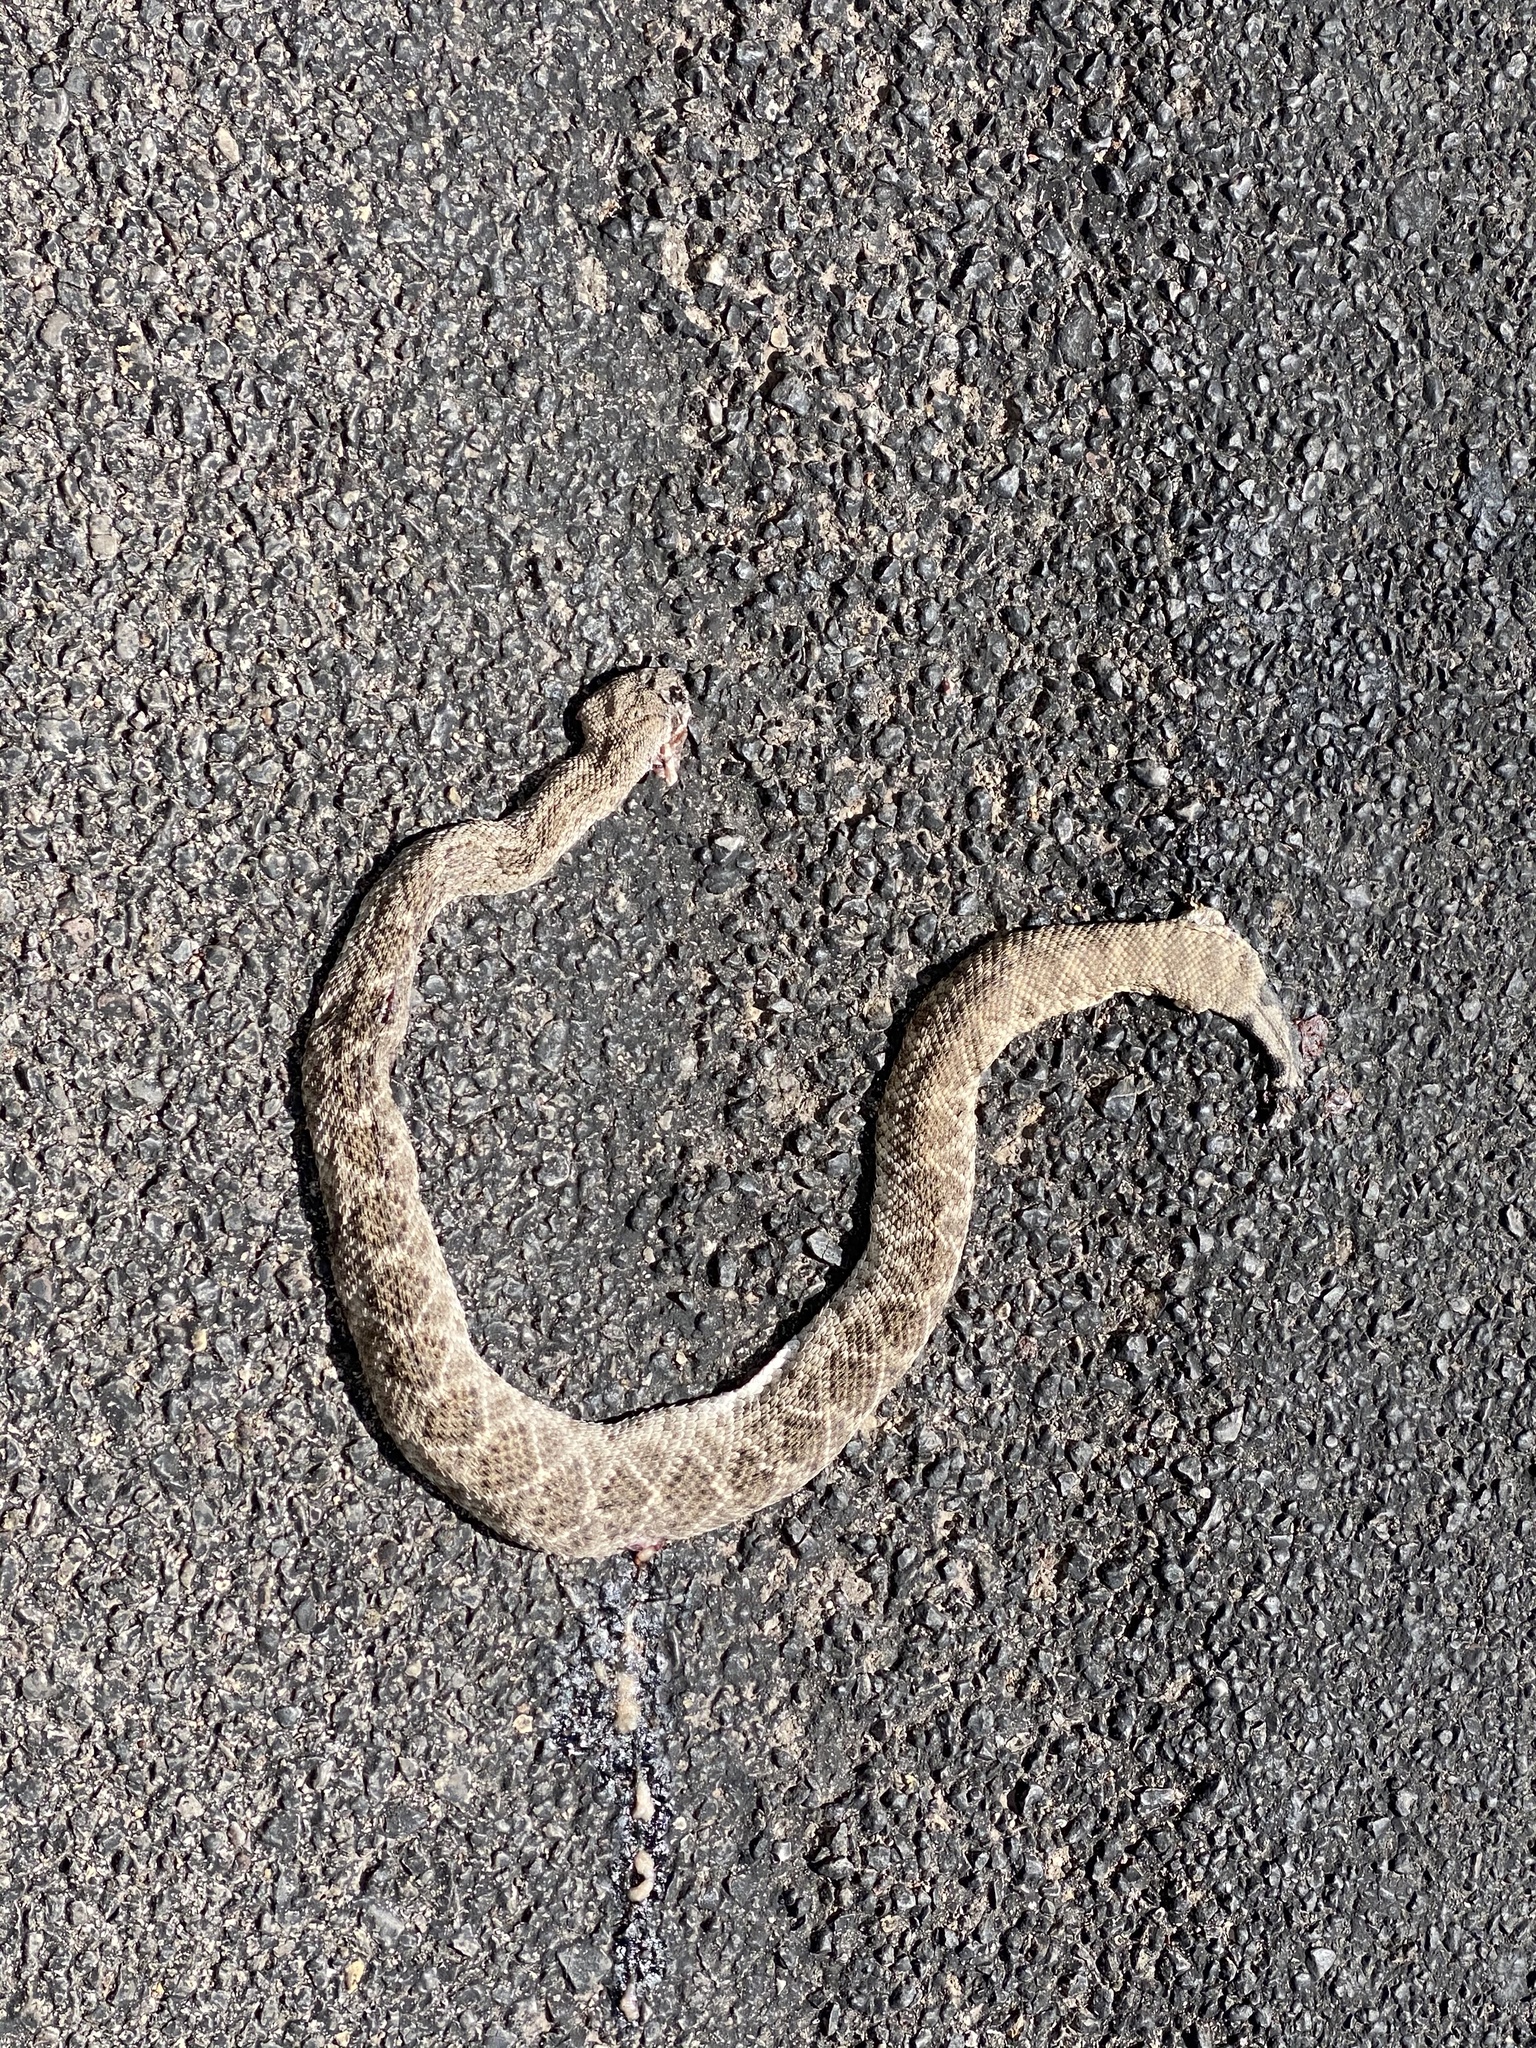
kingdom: Animalia
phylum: Chordata
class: Squamata
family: Viperidae
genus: Crotalus
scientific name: Crotalus atrox
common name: Western diamond-backed rattlesnake
